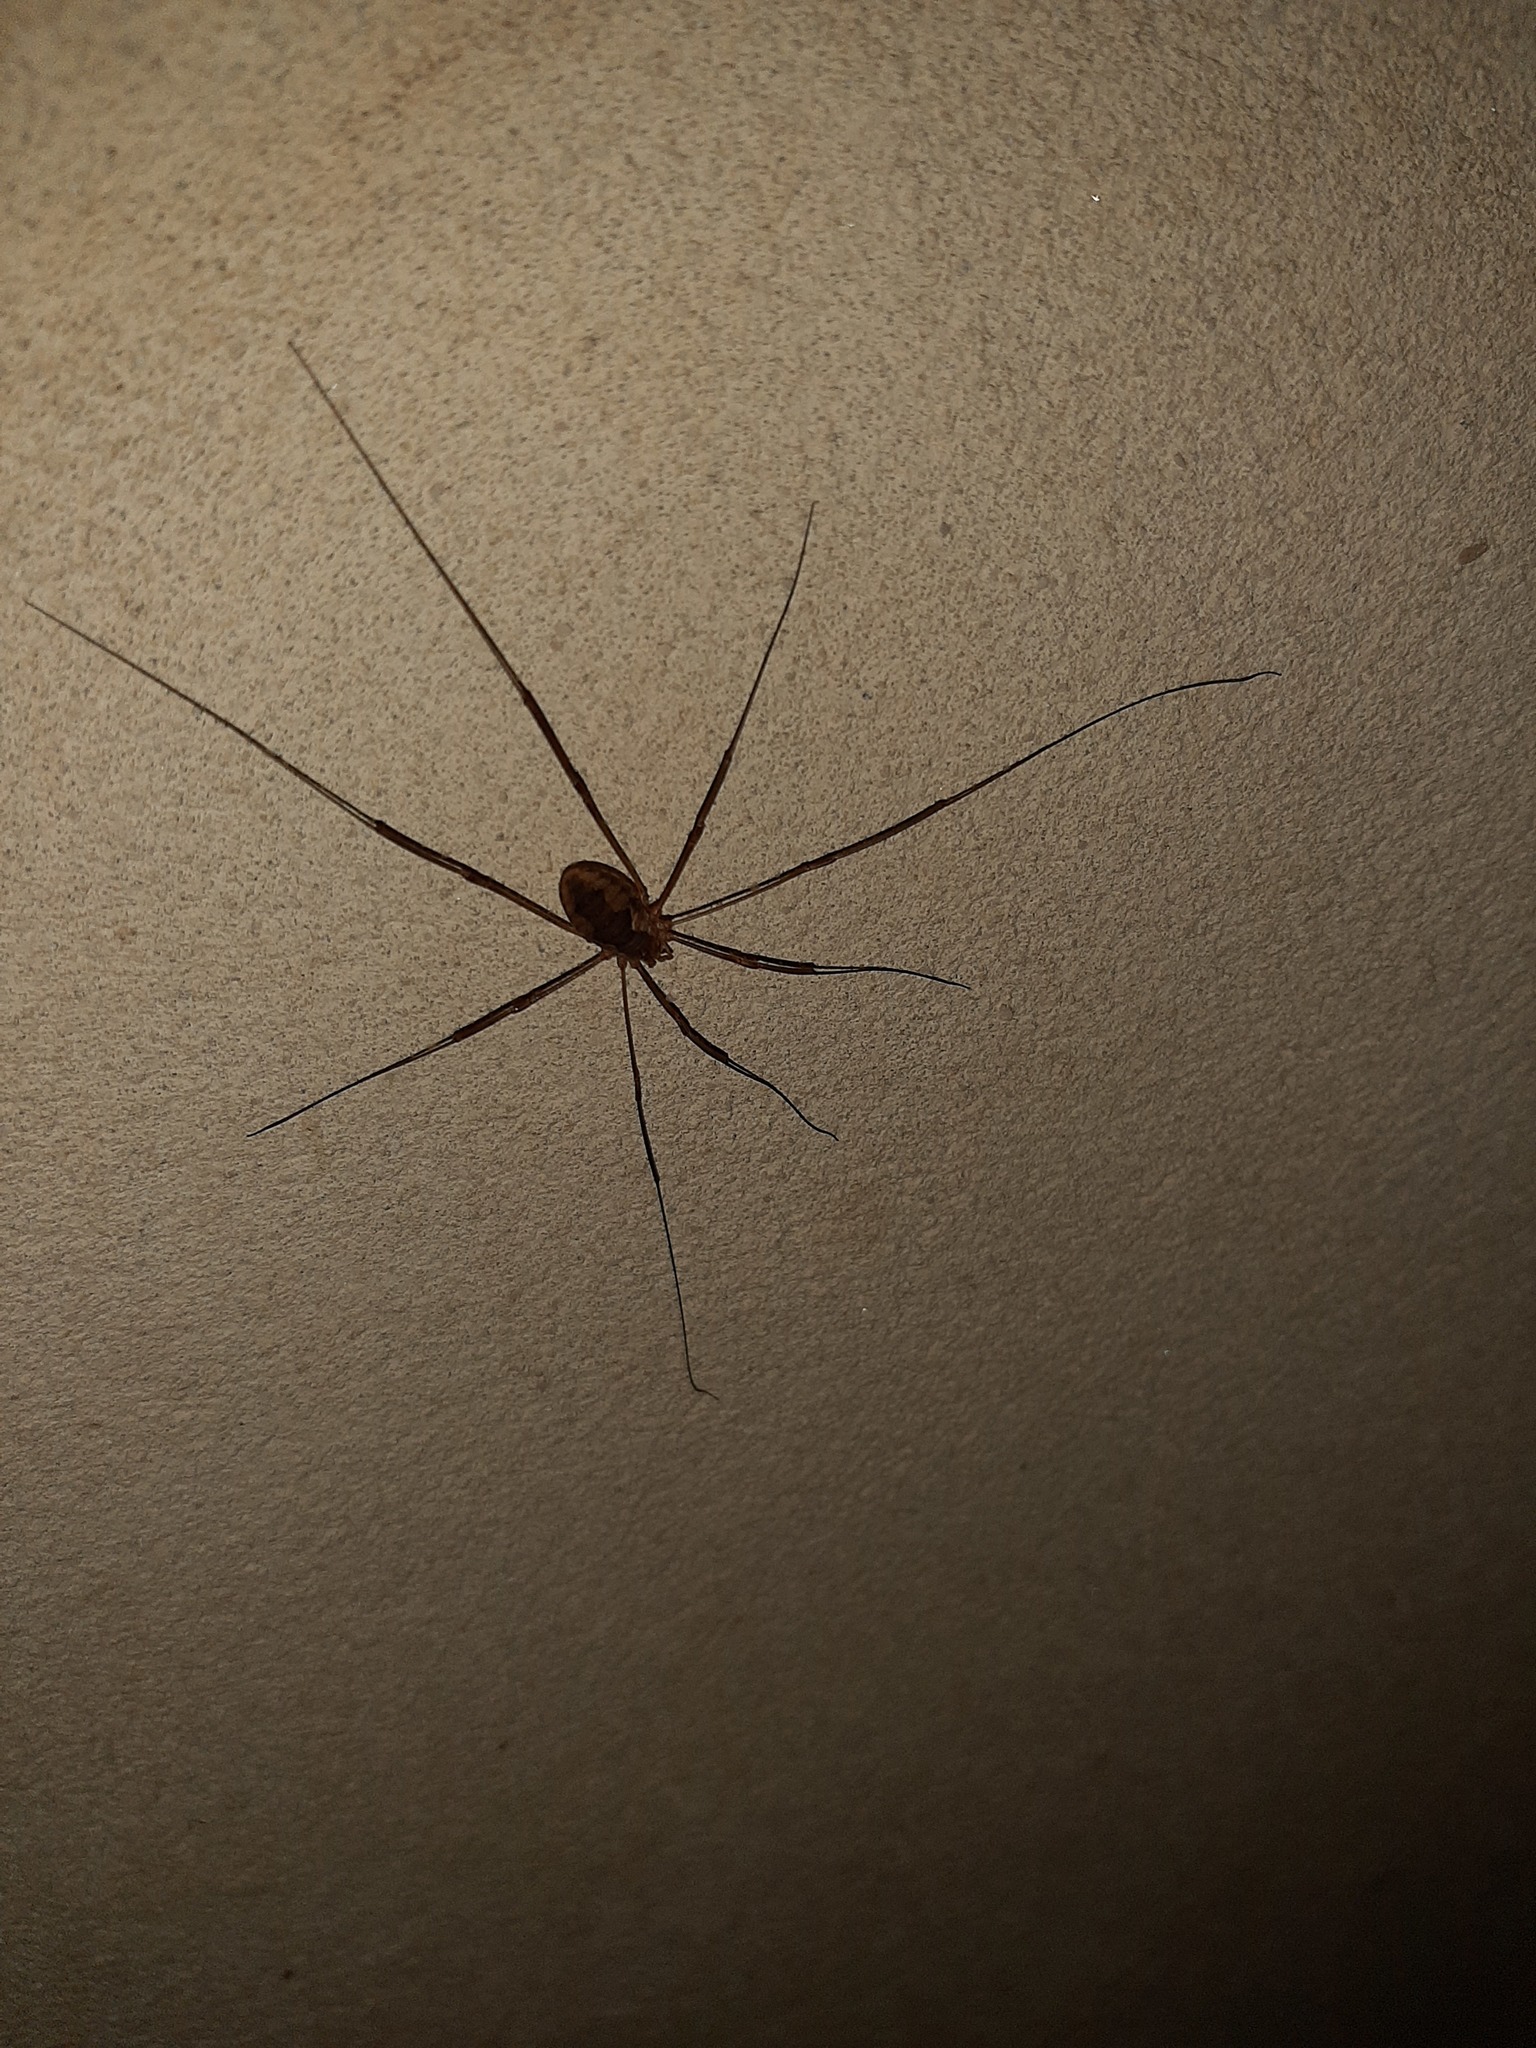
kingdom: Animalia
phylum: Arthropoda
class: Arachnida
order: Opiliones
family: Phalangiidae
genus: Phalangium
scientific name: Phalangium opilio
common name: Daddy longleg
